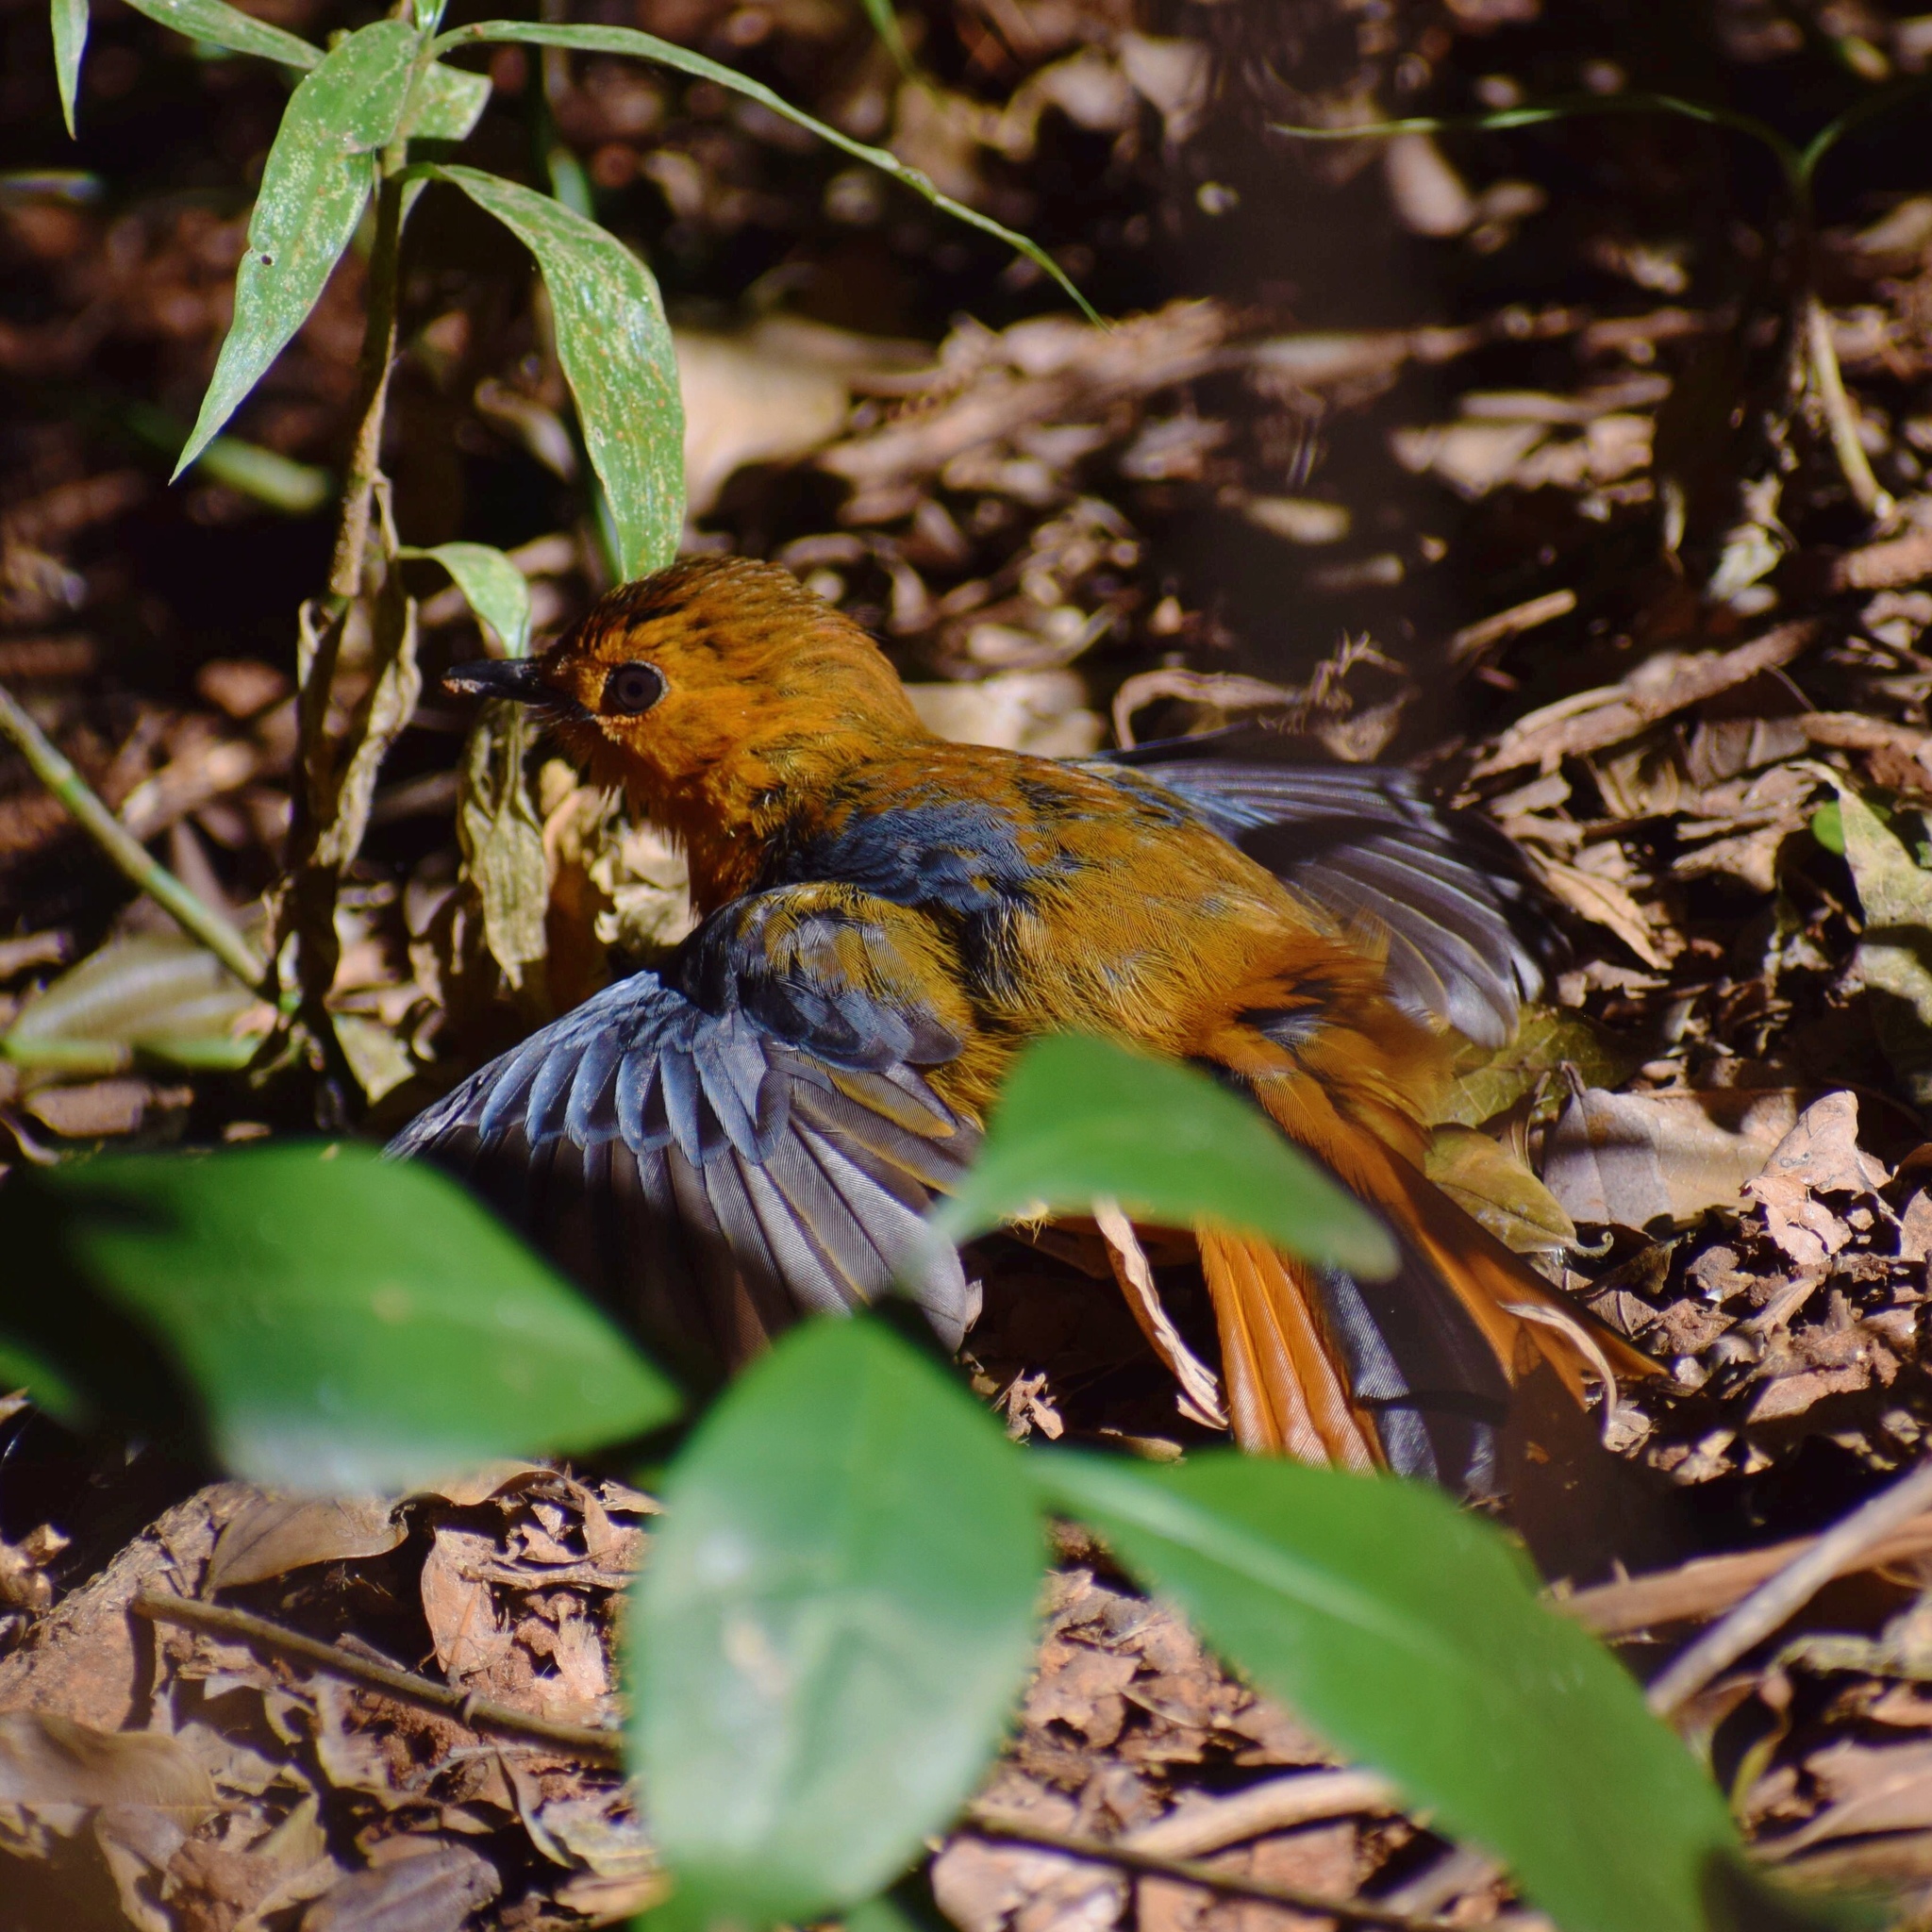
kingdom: Animalia
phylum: Chordata
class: Aves
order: Passeriformes
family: Muscicapidae
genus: Cossypha
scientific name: Cossypha natalensis
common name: Red-capped robin-chat
